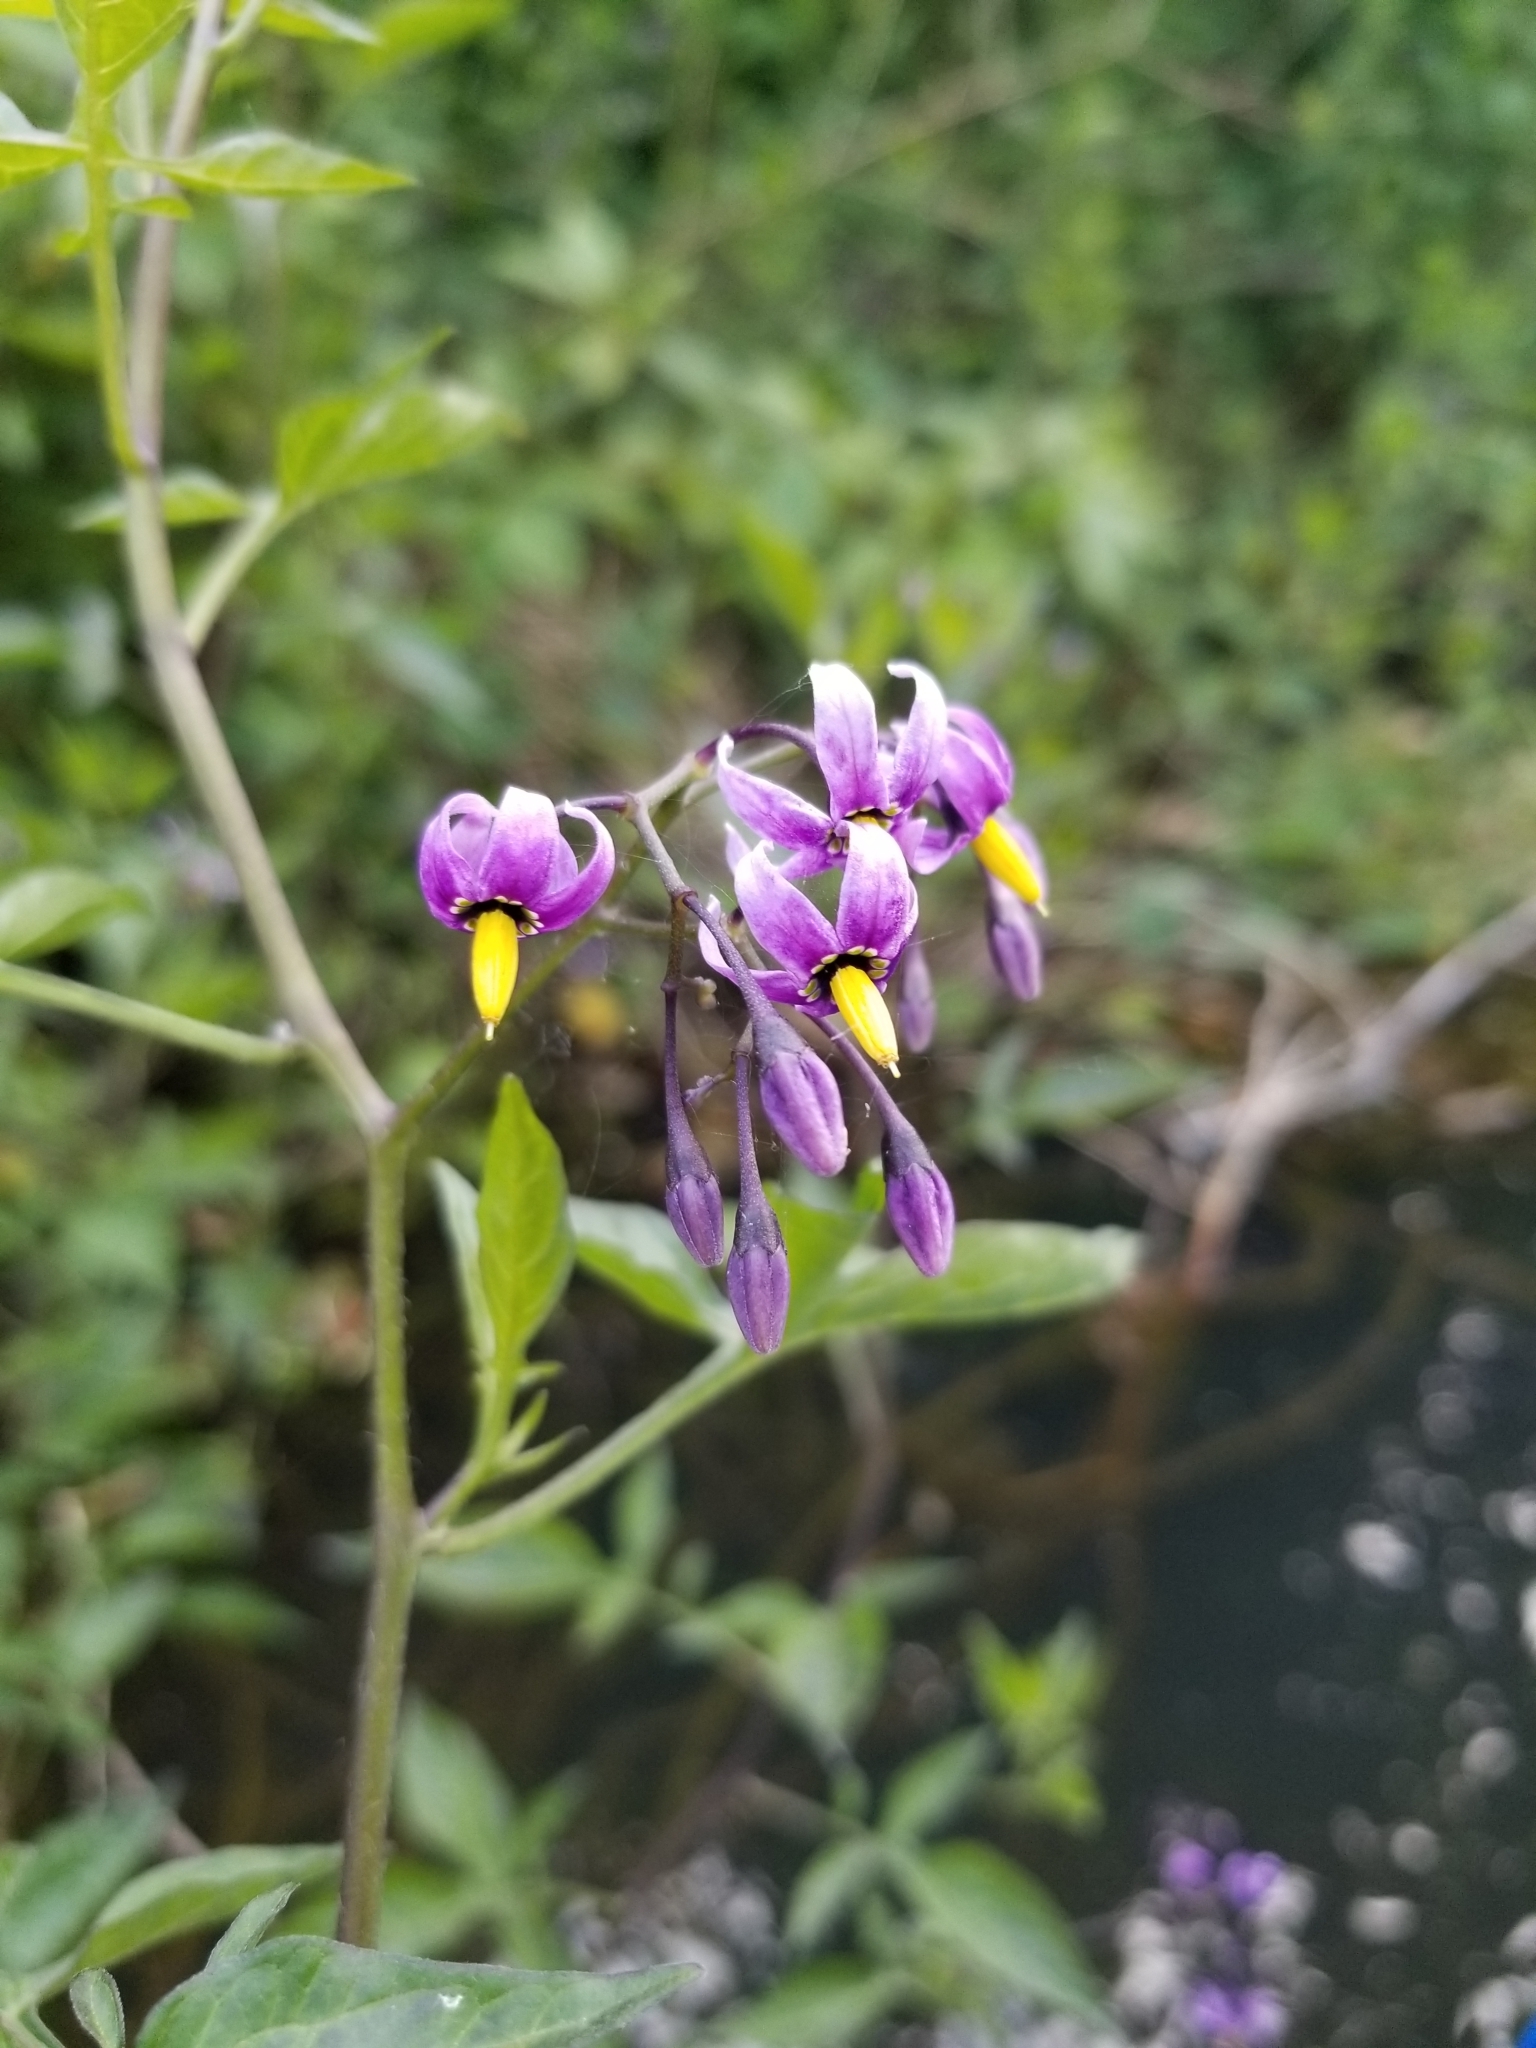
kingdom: Plantae
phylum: Tracheophyta
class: Magnoliopsida
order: Solanales
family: Solanaceae
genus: Solanum
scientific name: Solanum dulcamara
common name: Climbing nightshade
